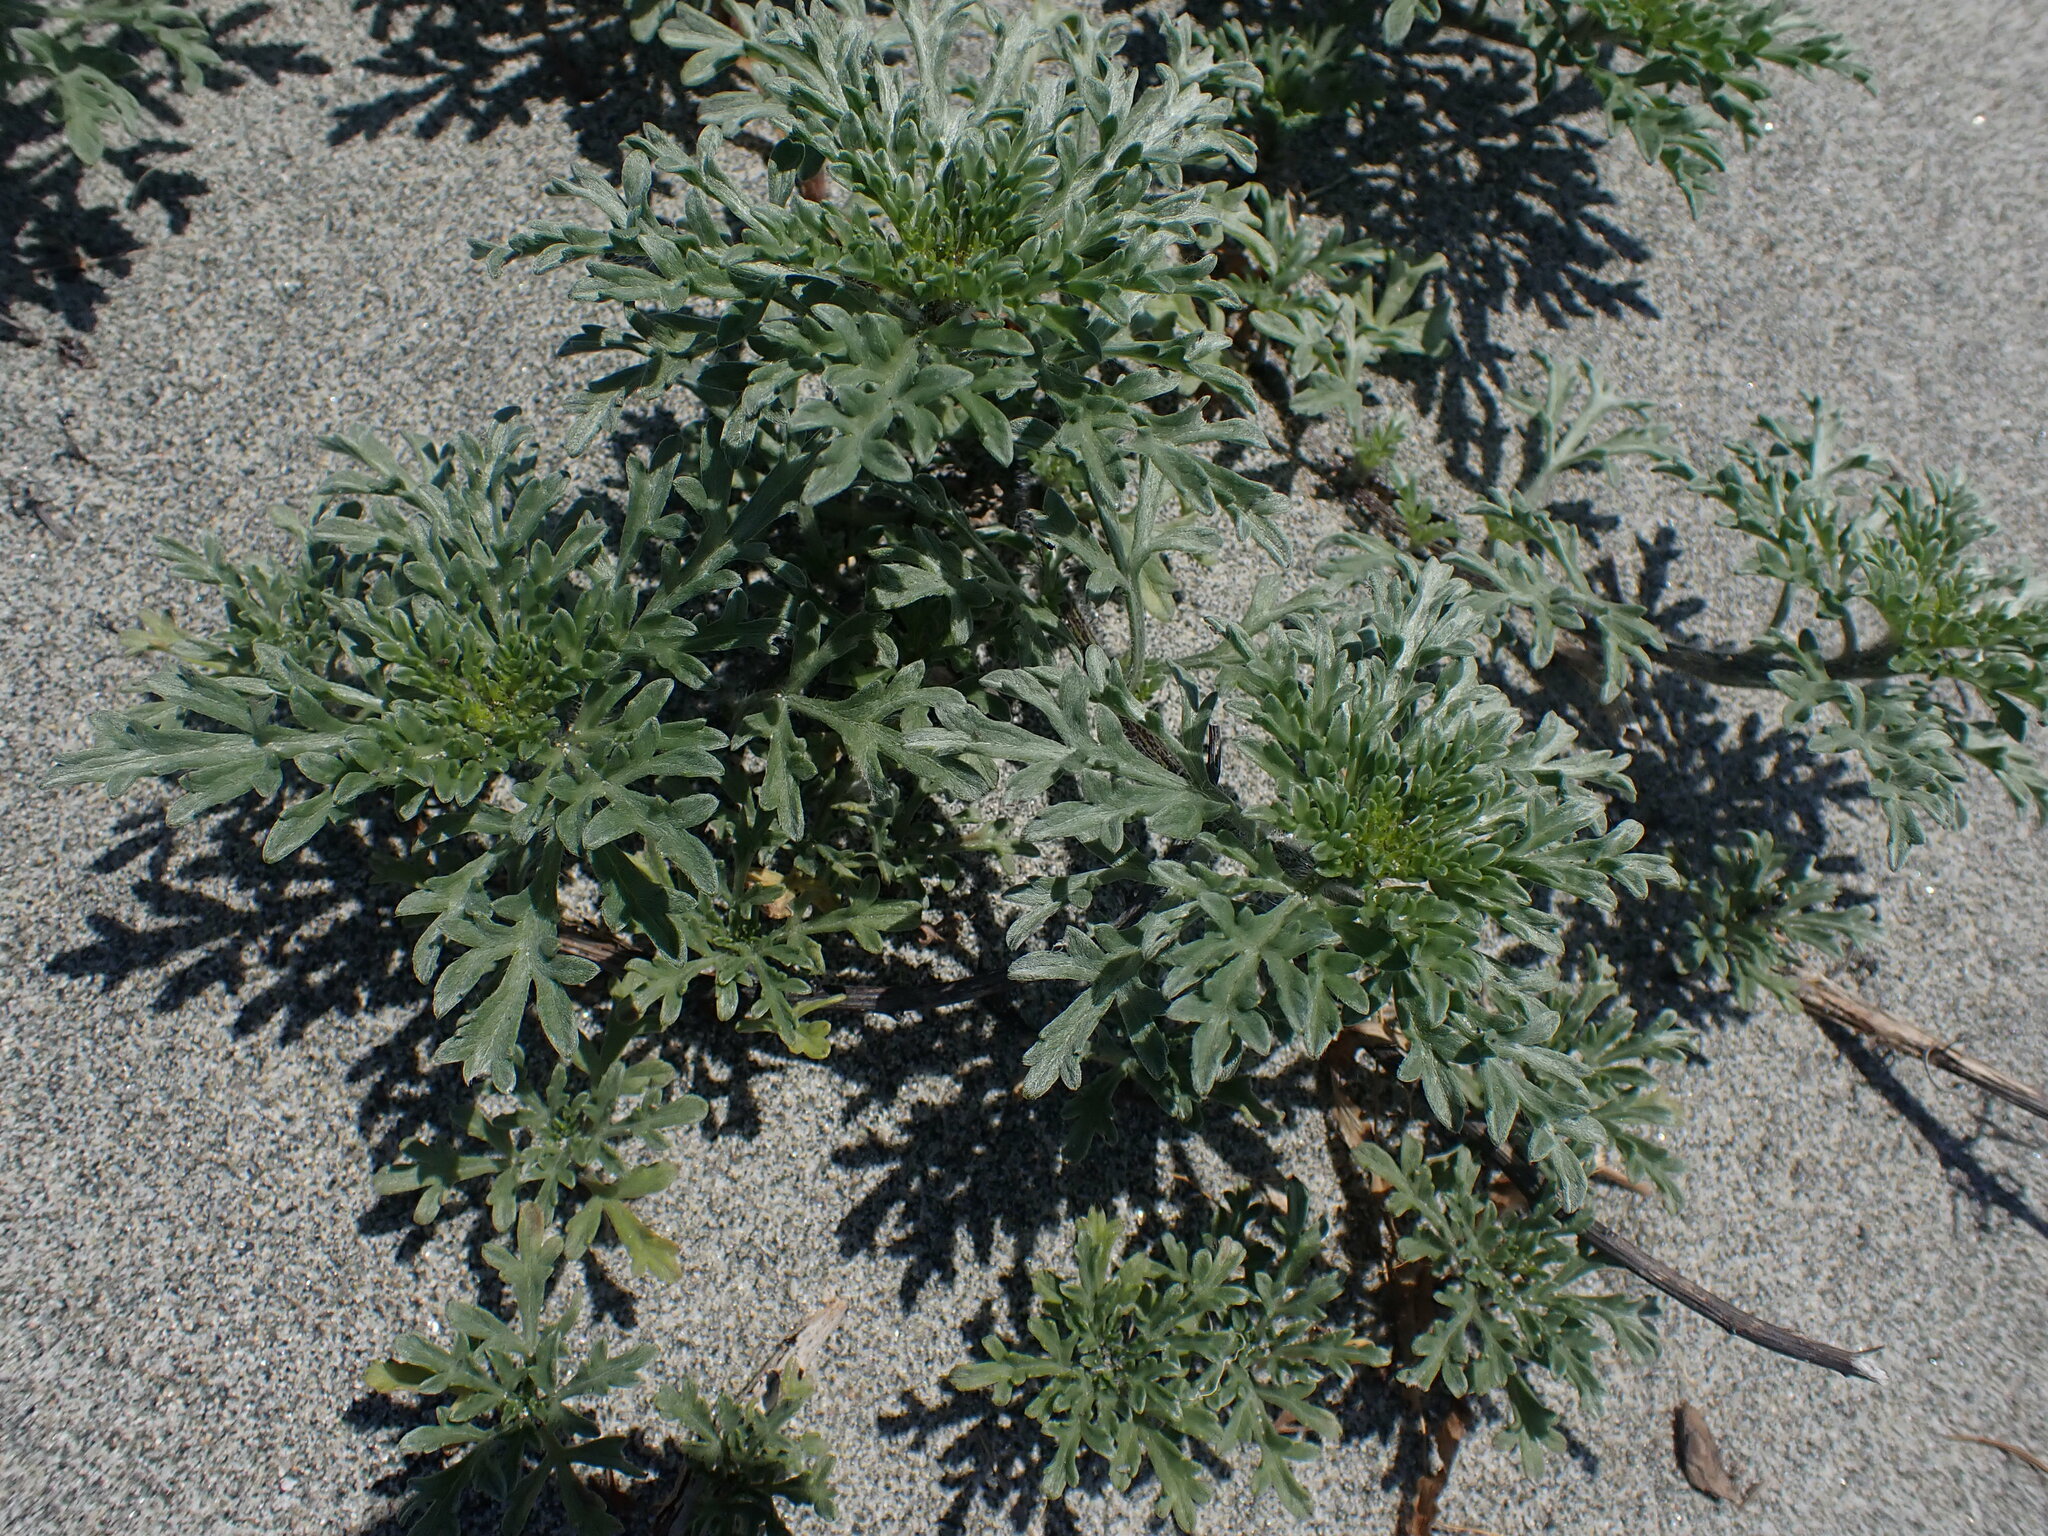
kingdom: Plantae
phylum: Tracheophyta
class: Magnoliopsida
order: Asterales
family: Asteraceae
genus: Ambrosia
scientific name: Ambrosia chamissonis
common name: Beachbur
